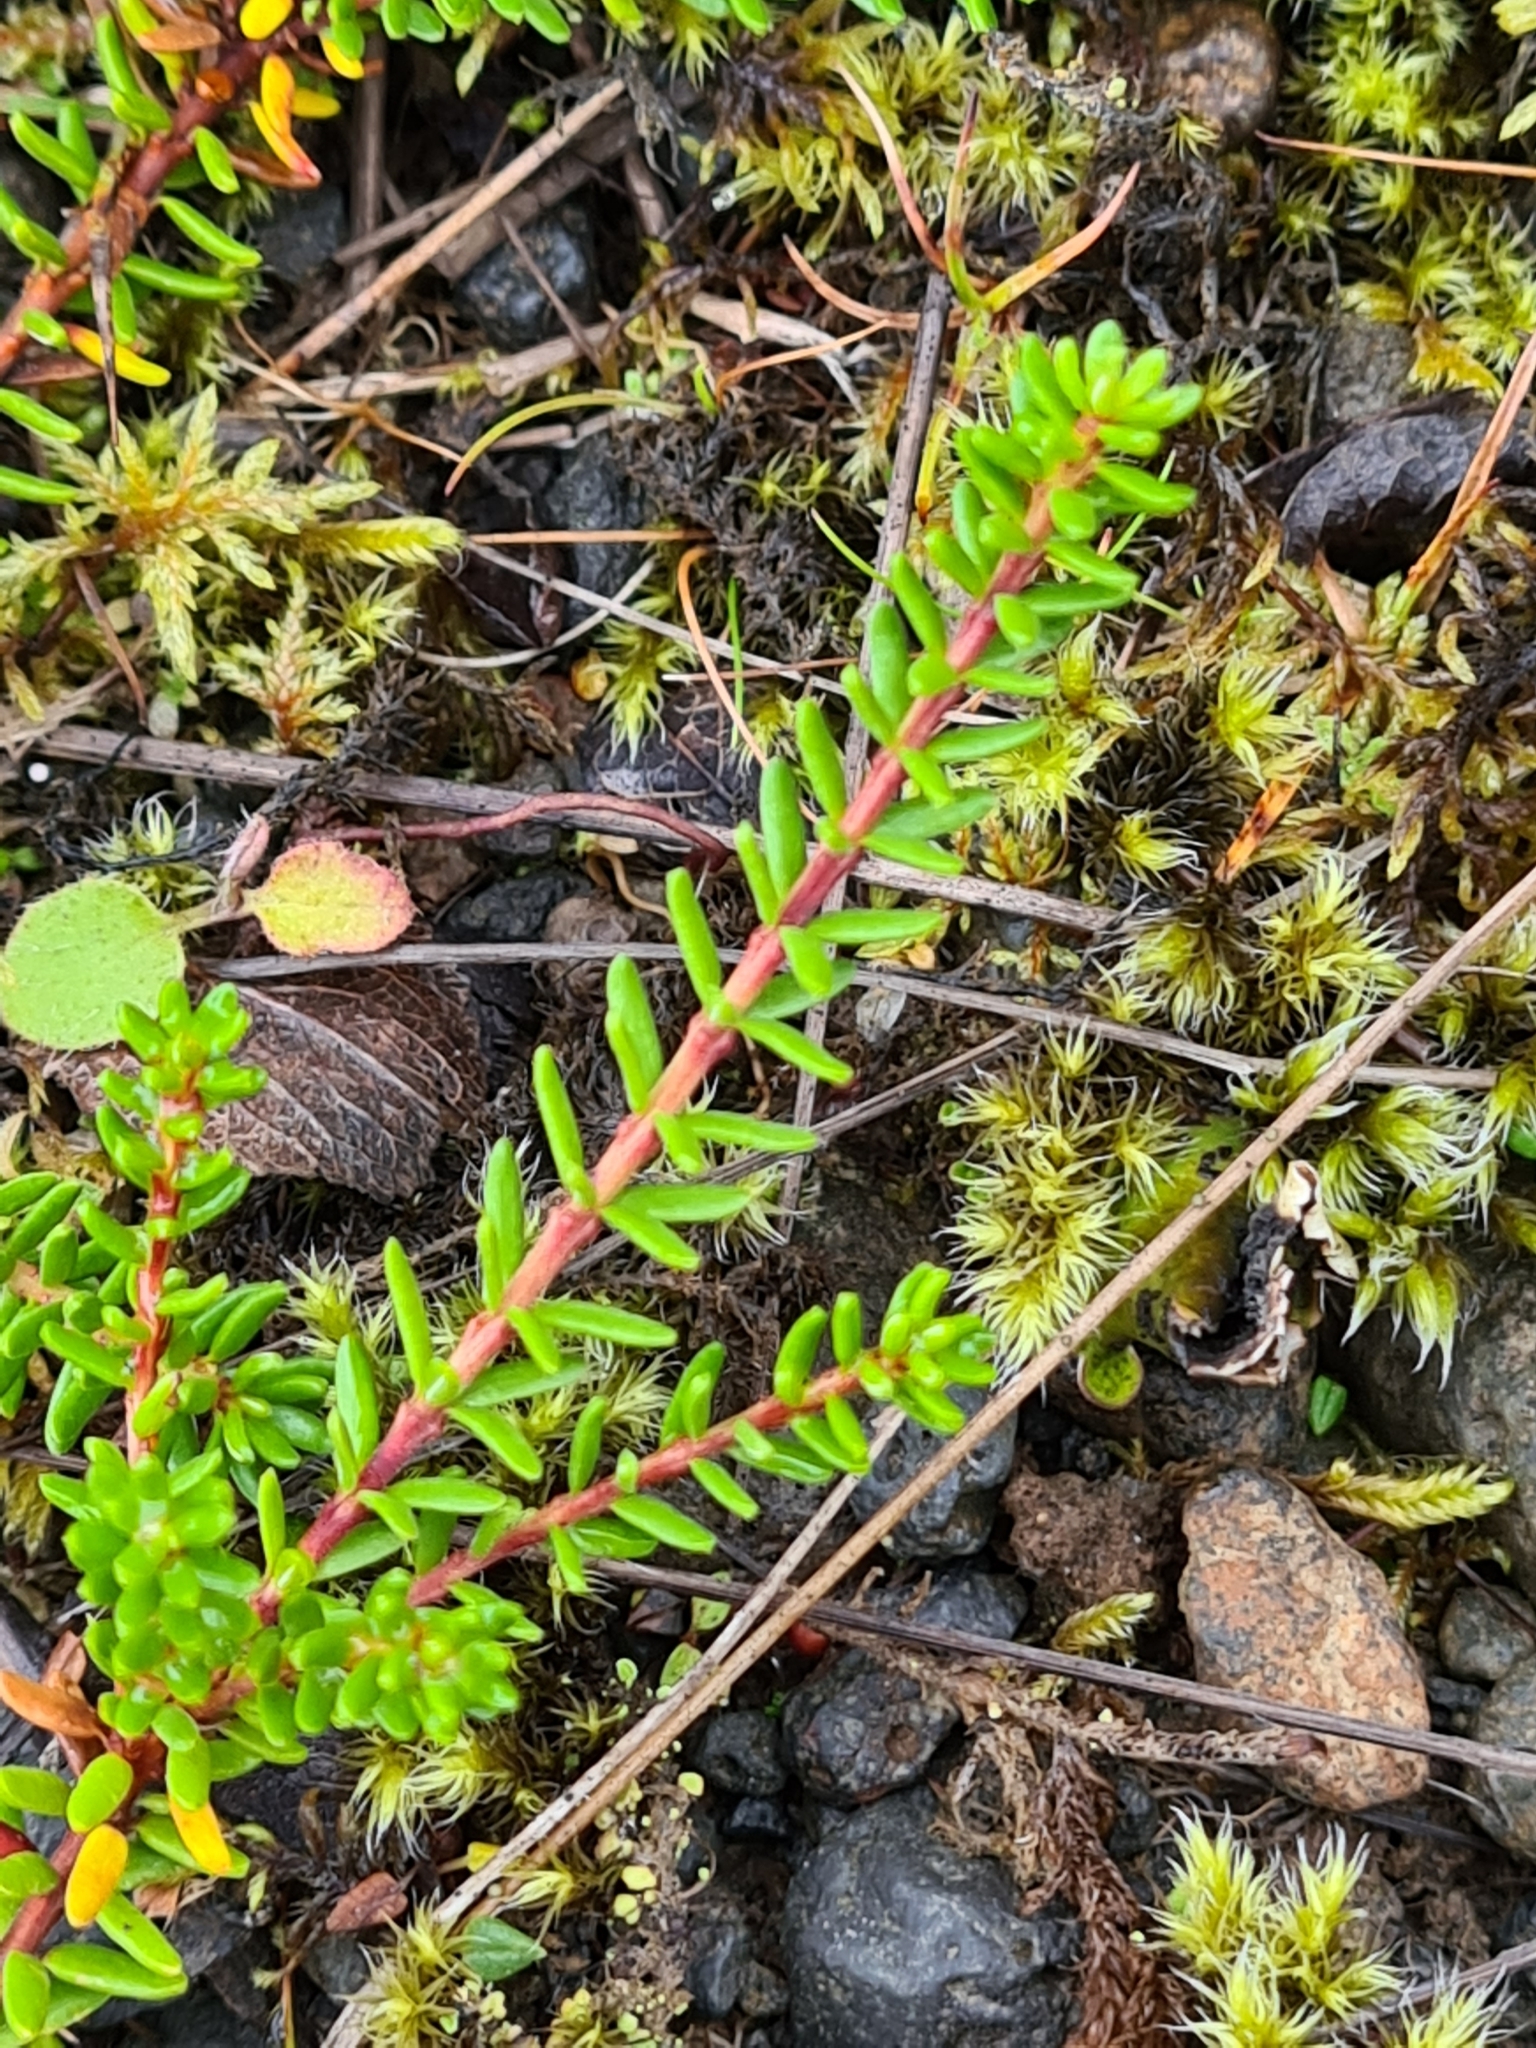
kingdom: Plantae
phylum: Tracheophyta
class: Magnoliopsida
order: Ericales
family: Ericaceae
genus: Empetrum
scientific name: Empetrum nigrum
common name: Black crowberry
